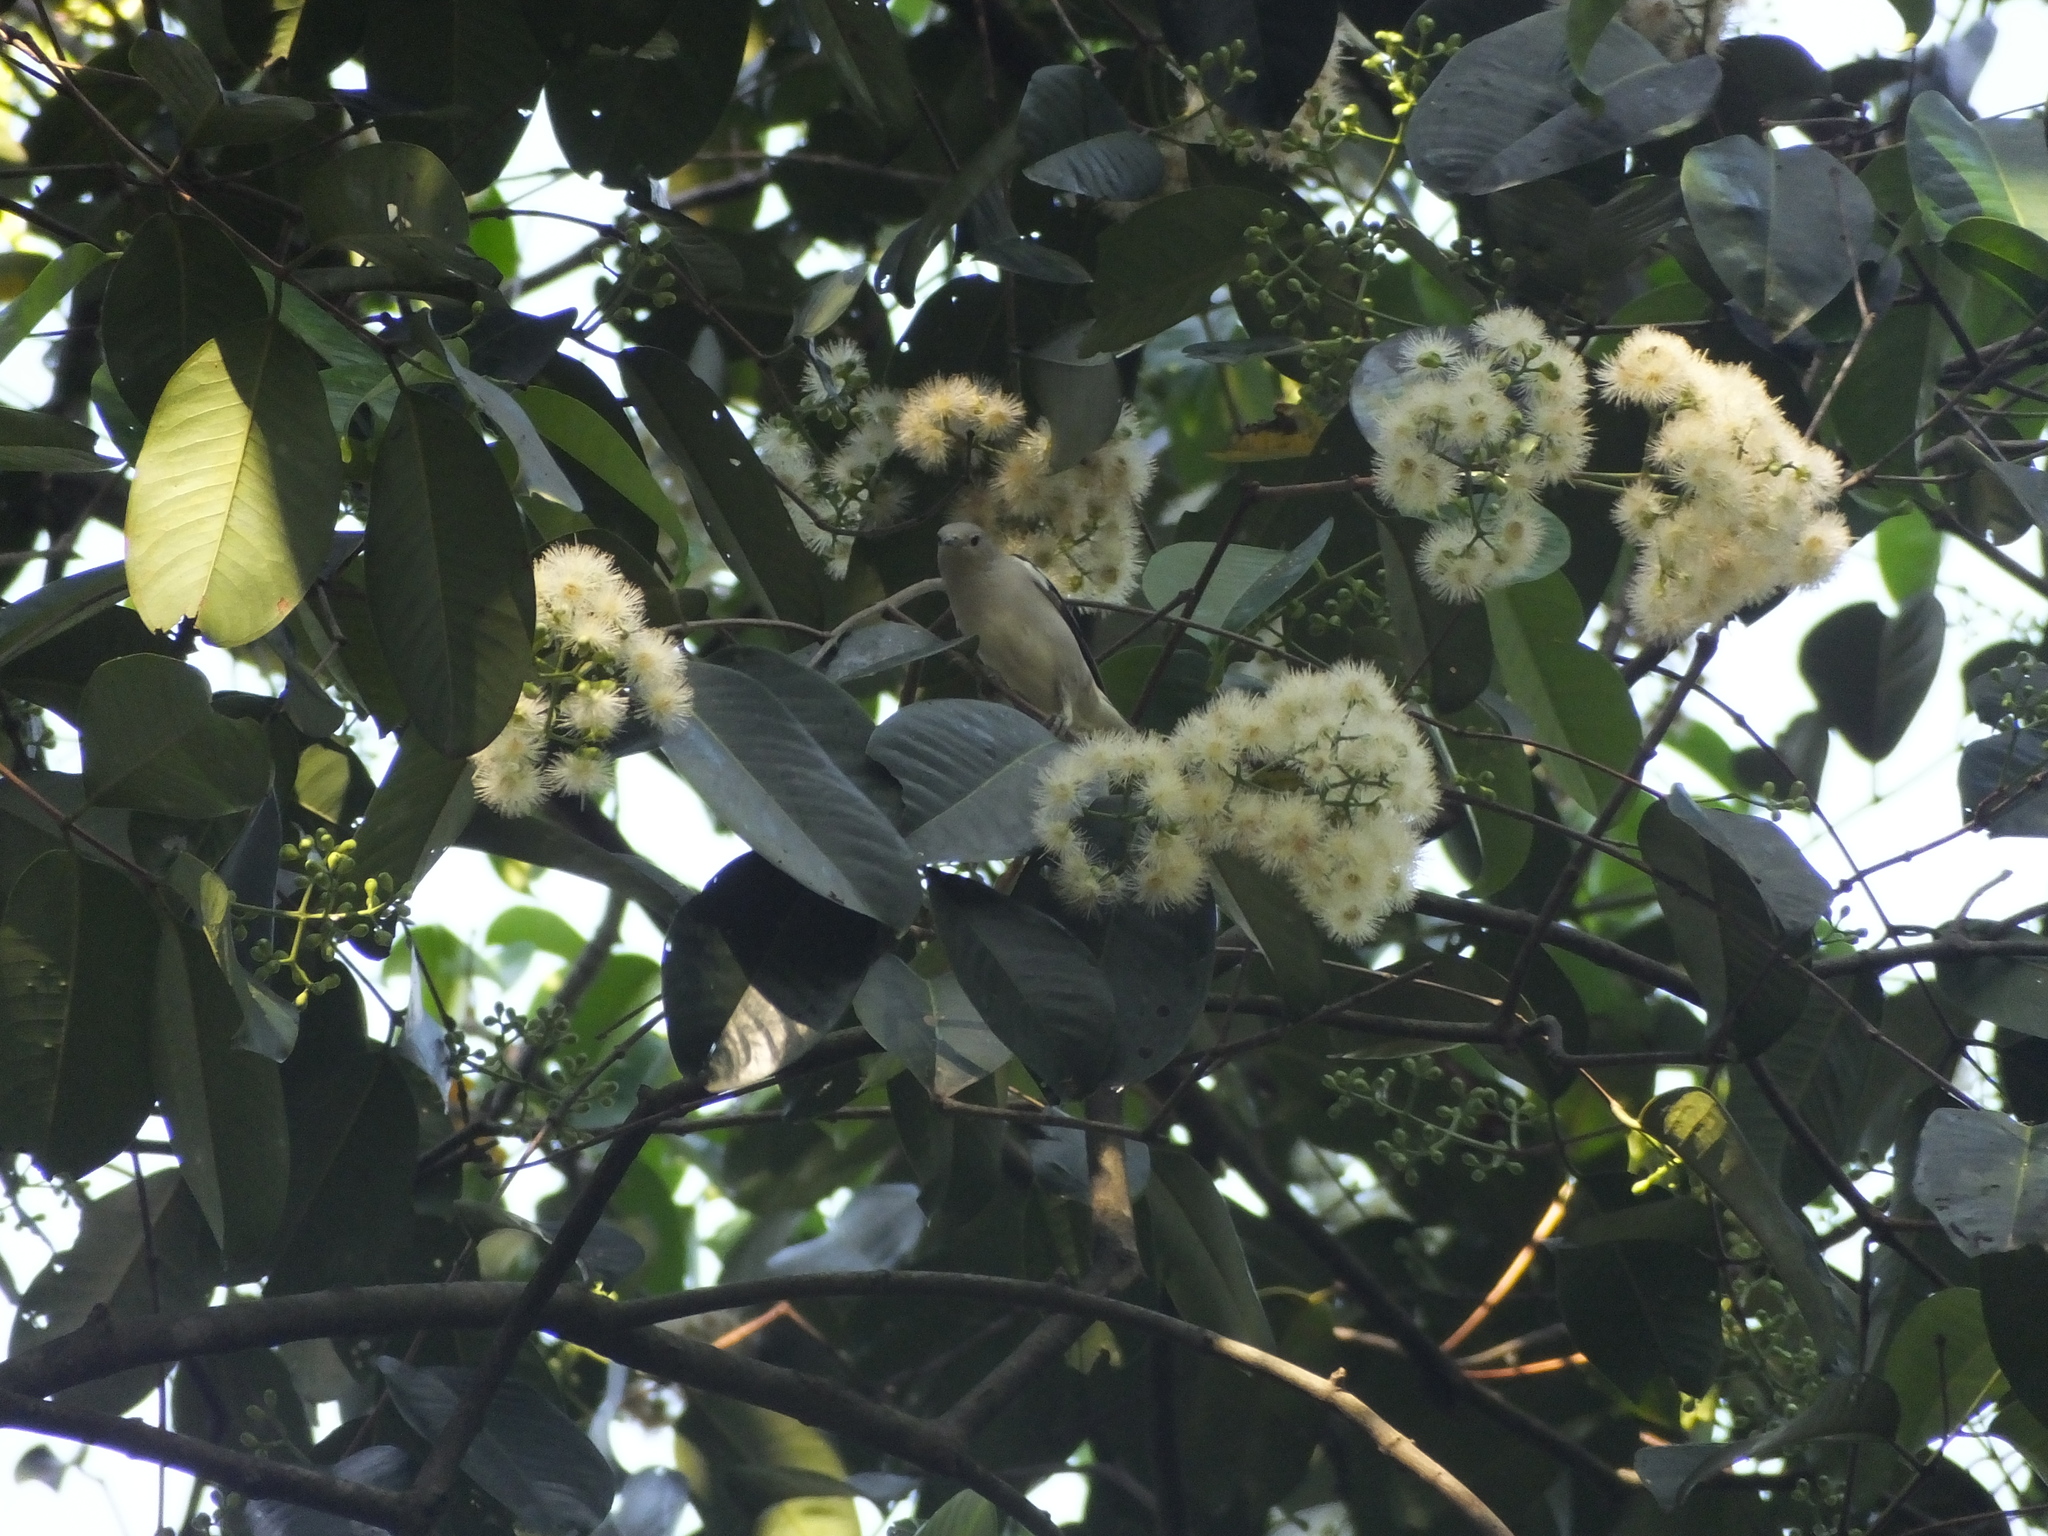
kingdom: Animalia
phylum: Chordata
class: Aves
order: Passeriformes
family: Sturnidae
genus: Agropsar
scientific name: Agropsar sturninus
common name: Daurian starling
